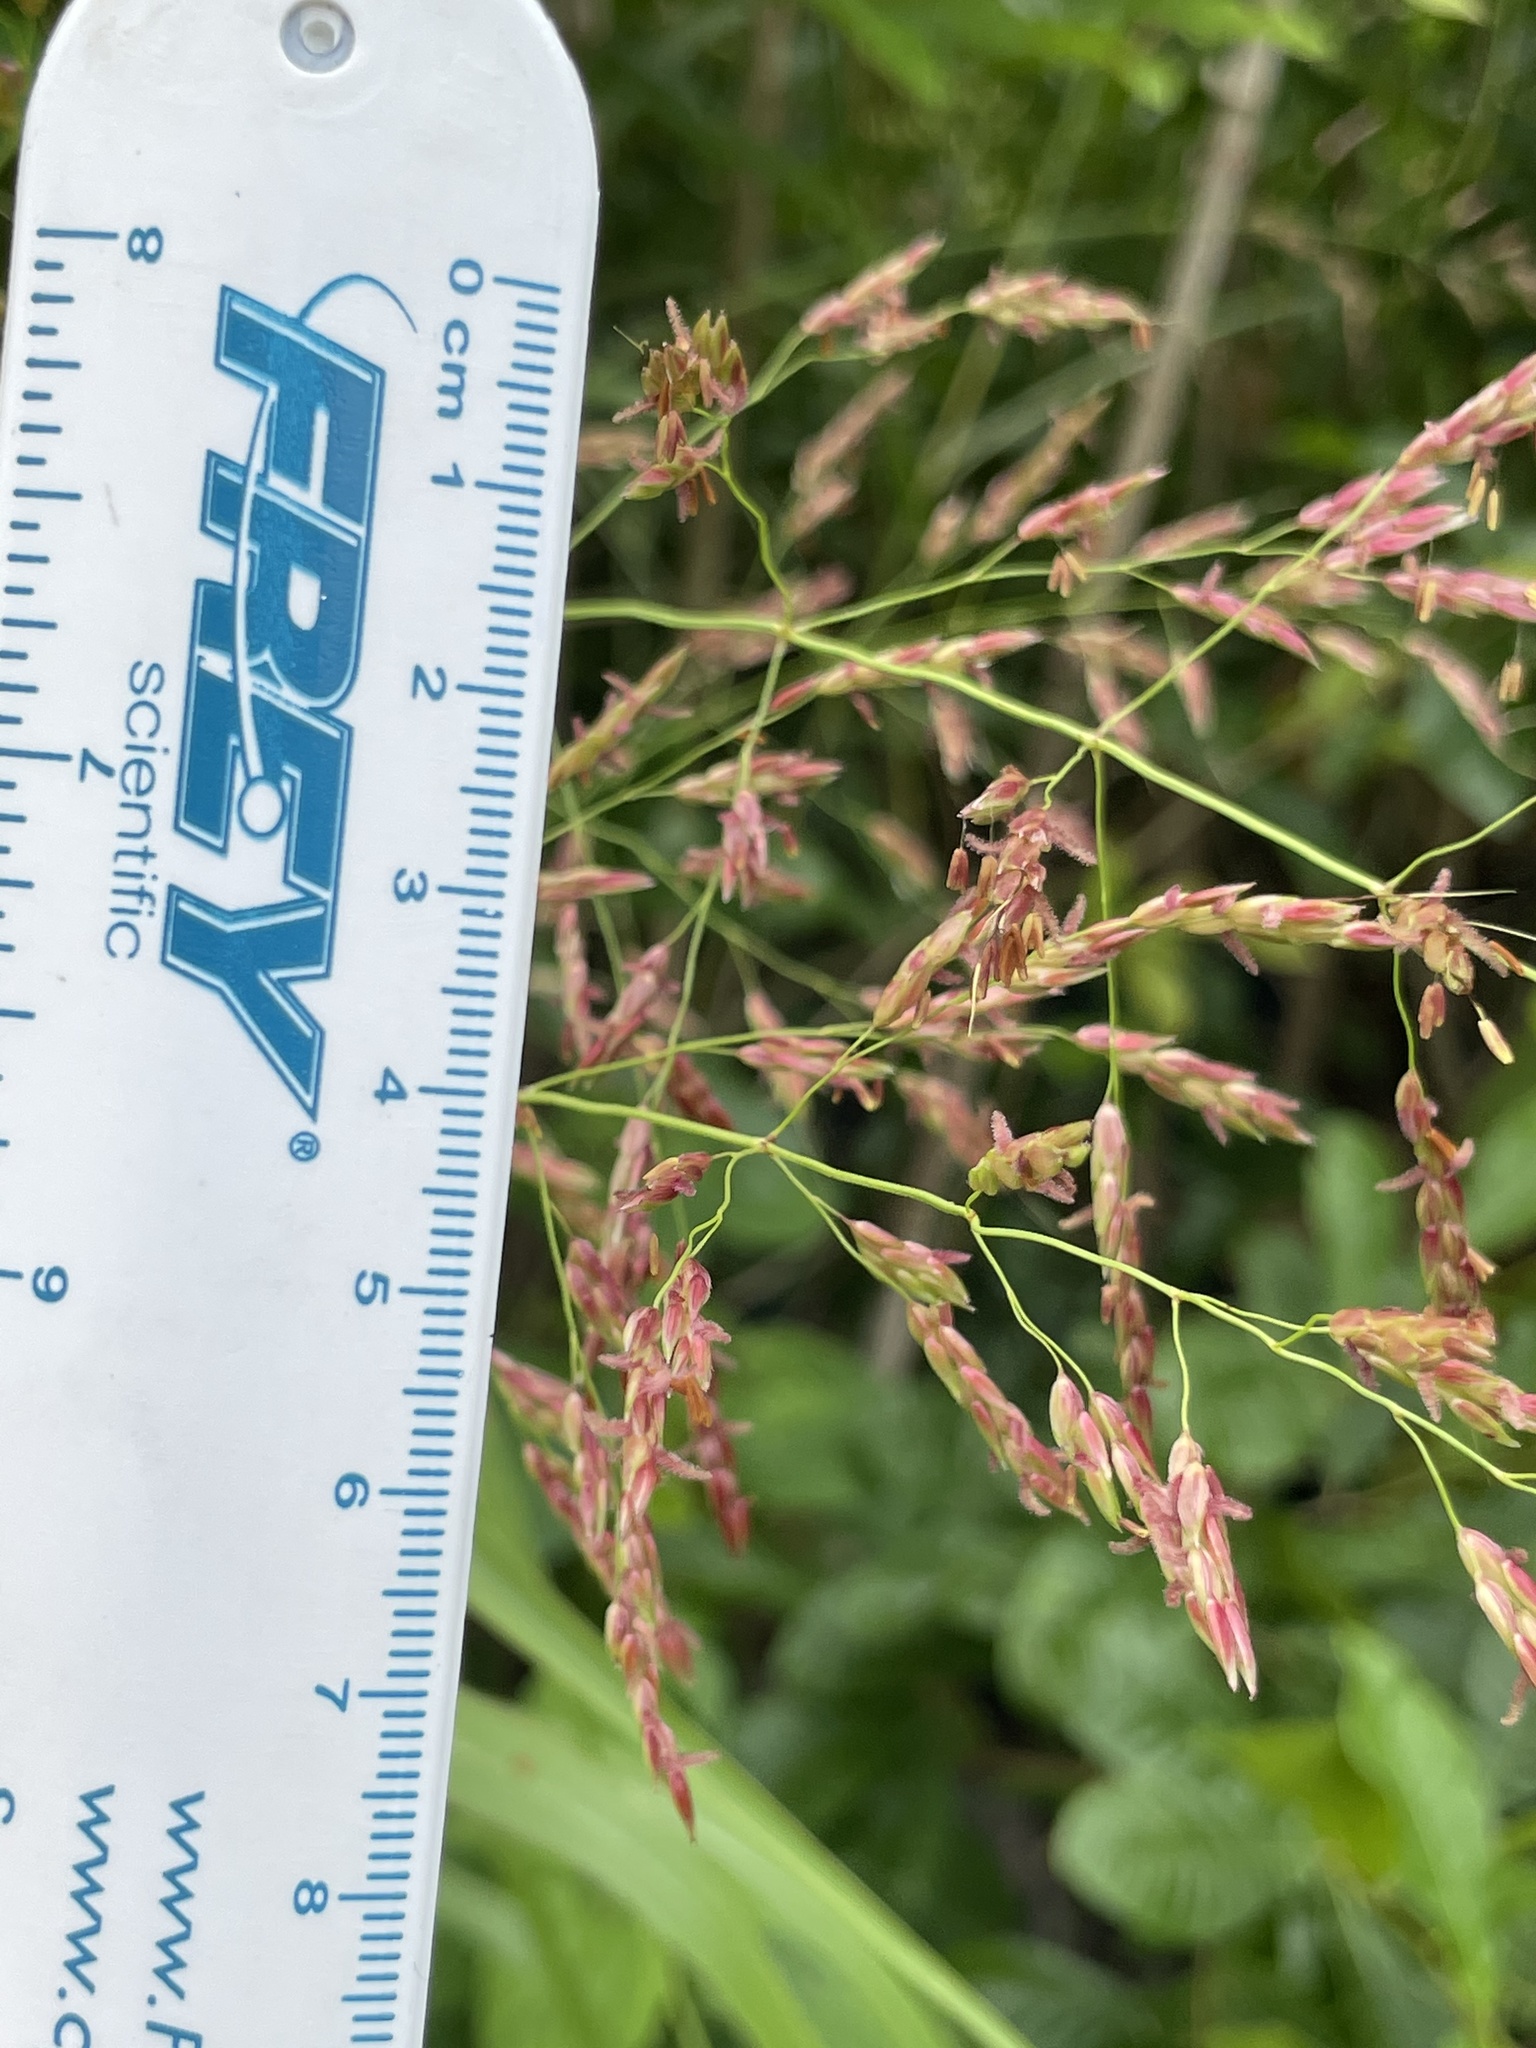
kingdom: Plantae
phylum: Tracheophyta
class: Liliopsida
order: Poales
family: Poaceae
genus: Sorghum
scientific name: Sorghum halepense
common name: Johnson-grass
